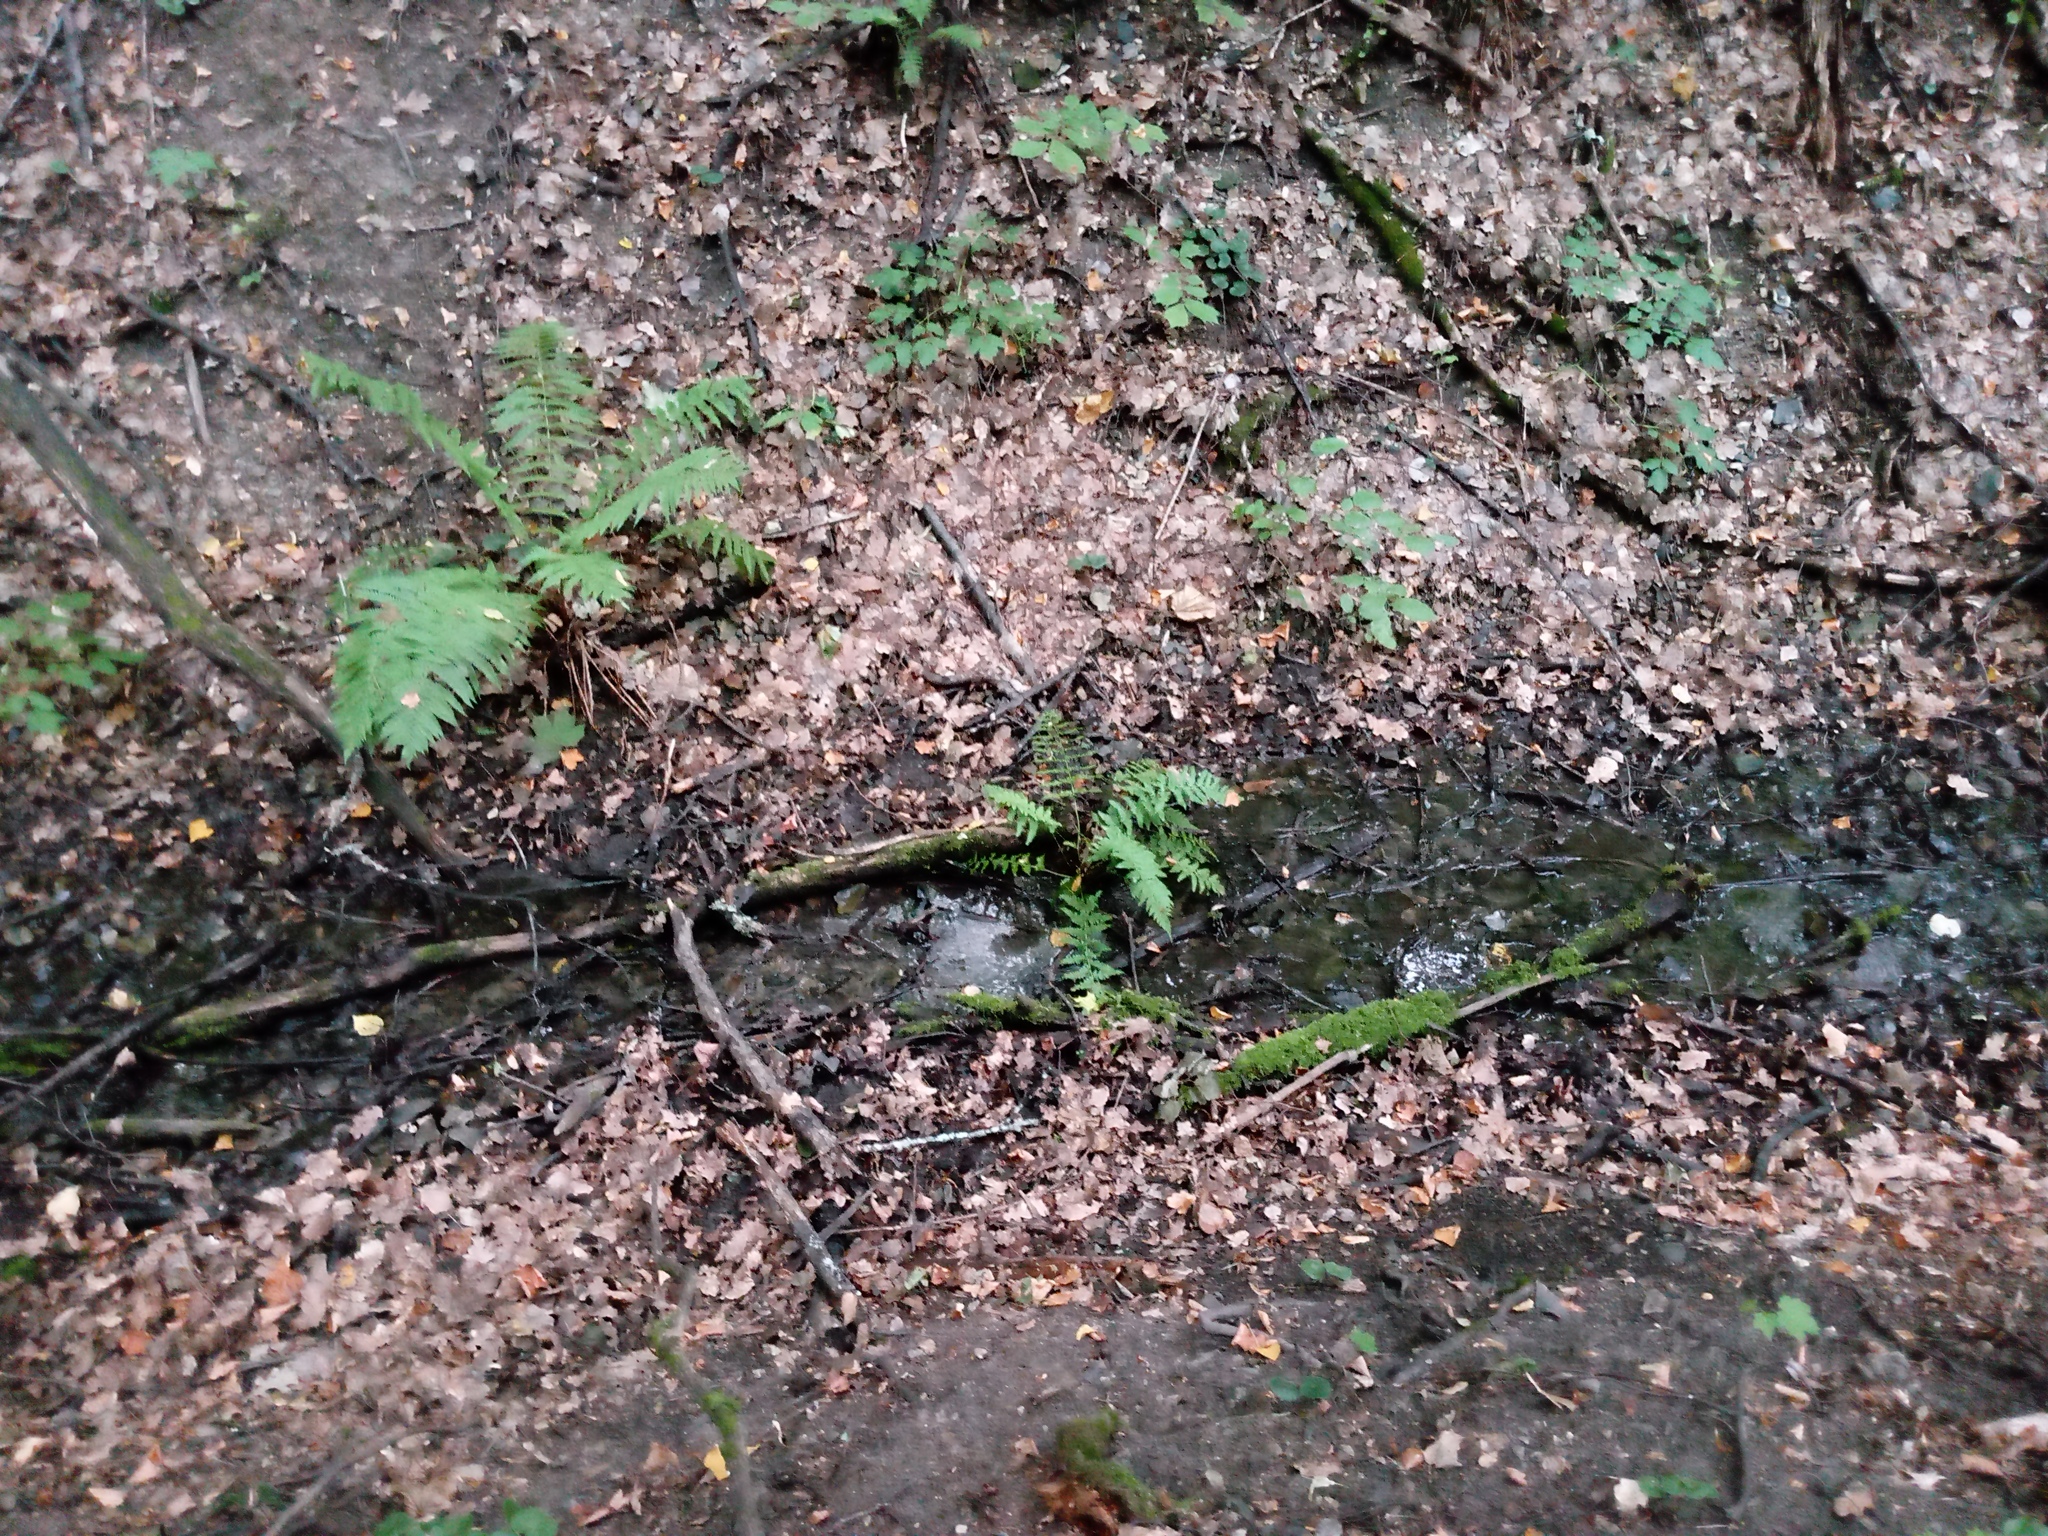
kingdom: Plantae
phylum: Tracheophyta
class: Polypodiopsida
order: Polypodiales
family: Dryopteridaceae
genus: Dryopteris
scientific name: Dryopteris filix-mas
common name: Male fern
